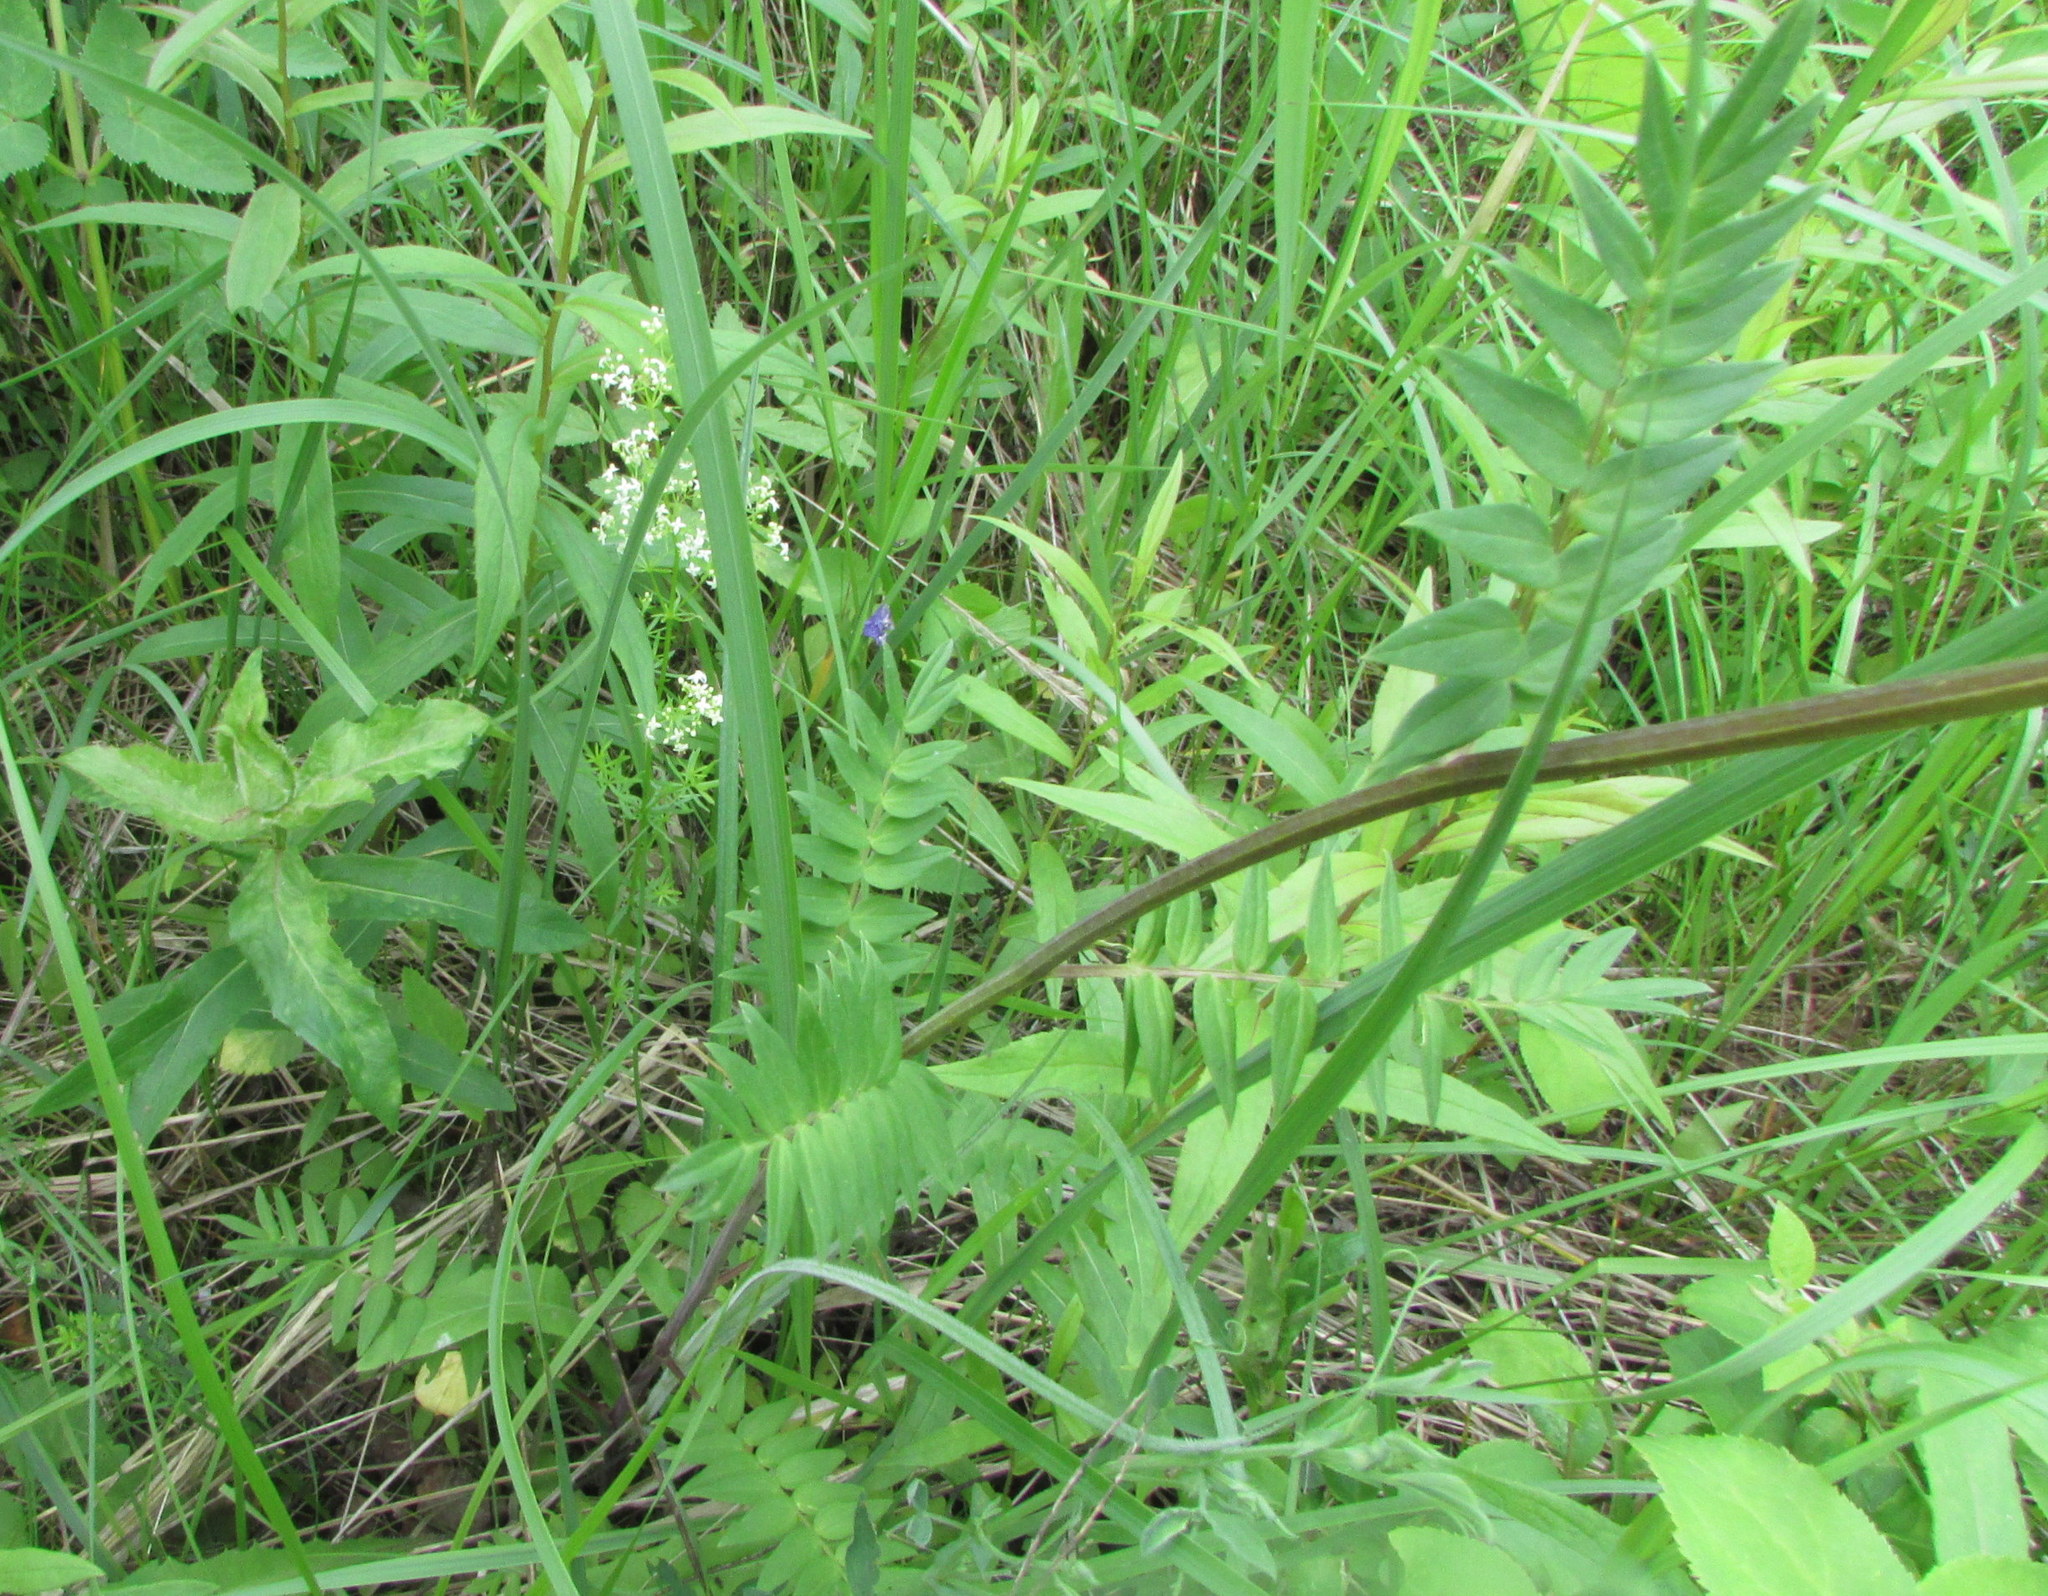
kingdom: Plantae
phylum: Tracheophyta
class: Magnoliopsida
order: Ericales
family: Polemoniaceae
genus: Polemonium
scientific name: Polemonium caeruleum
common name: Jacob's-ladder
